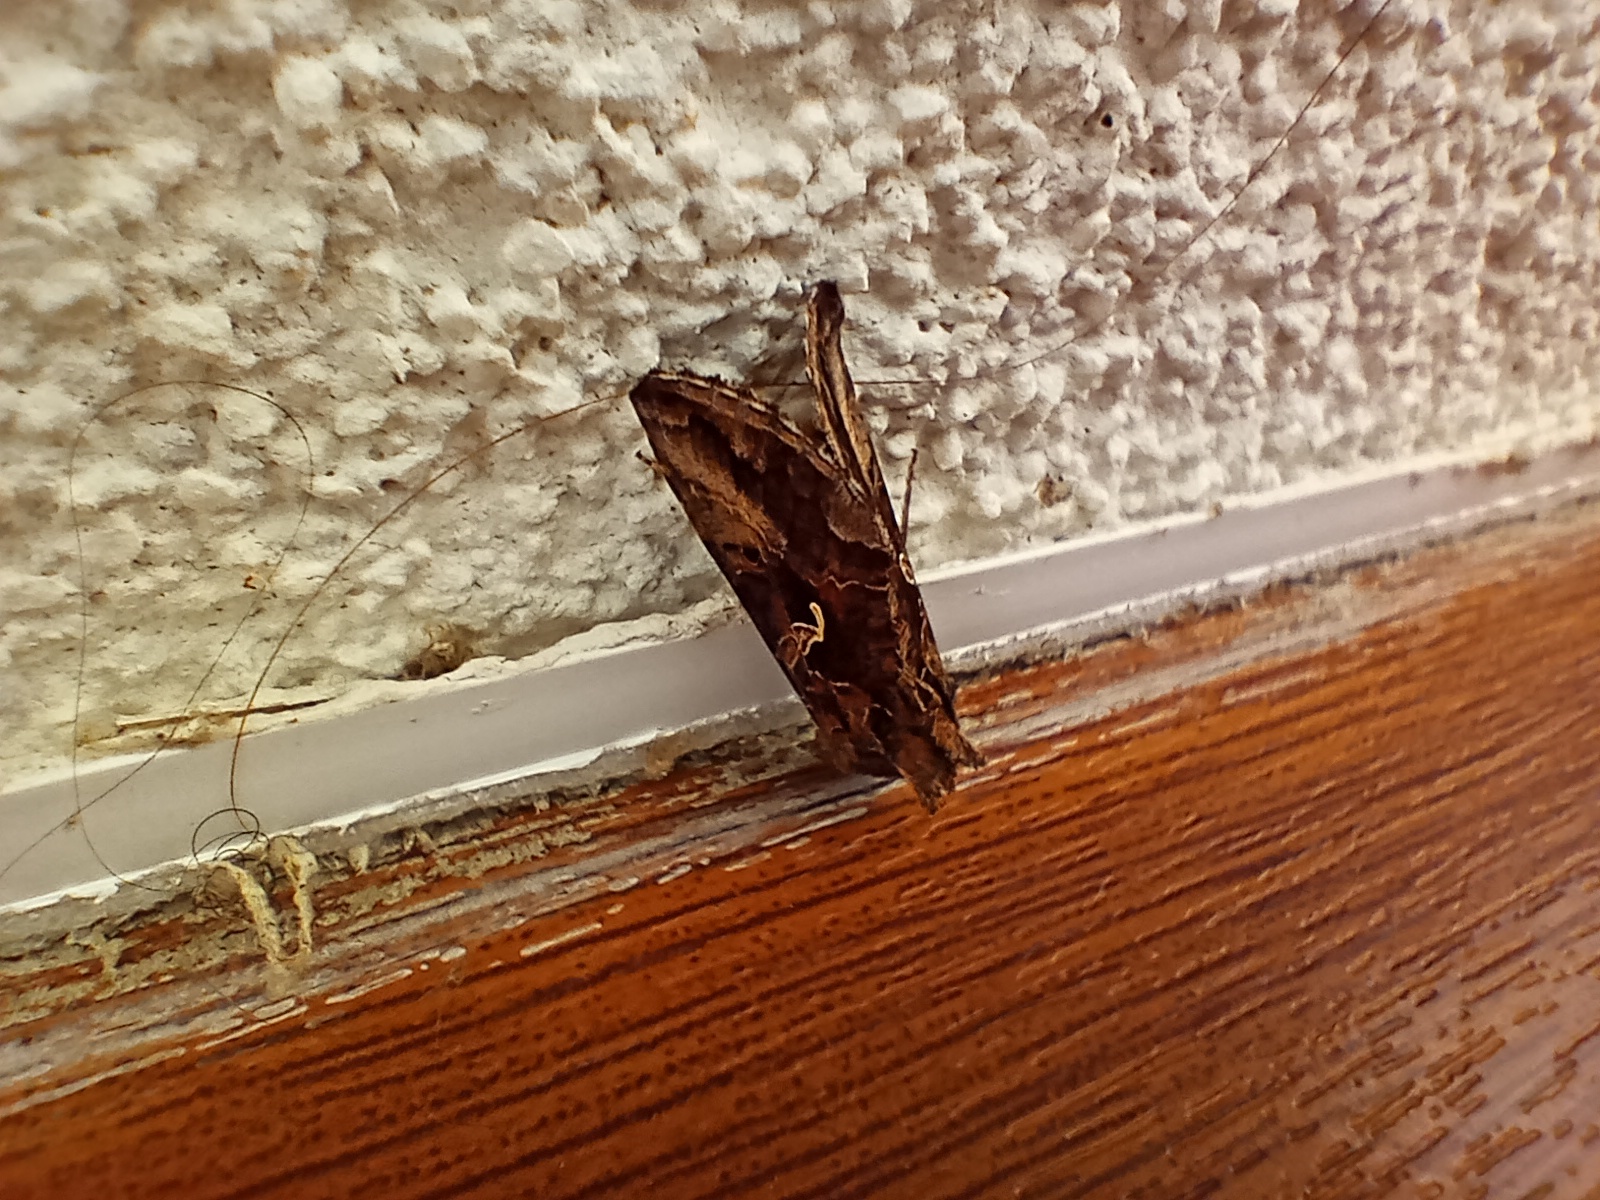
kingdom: Animalia
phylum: Arthropoda
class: Insecta
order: Lepidoptera
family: Noctuidae
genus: Autographa
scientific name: Autographa gamma
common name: Silver y
